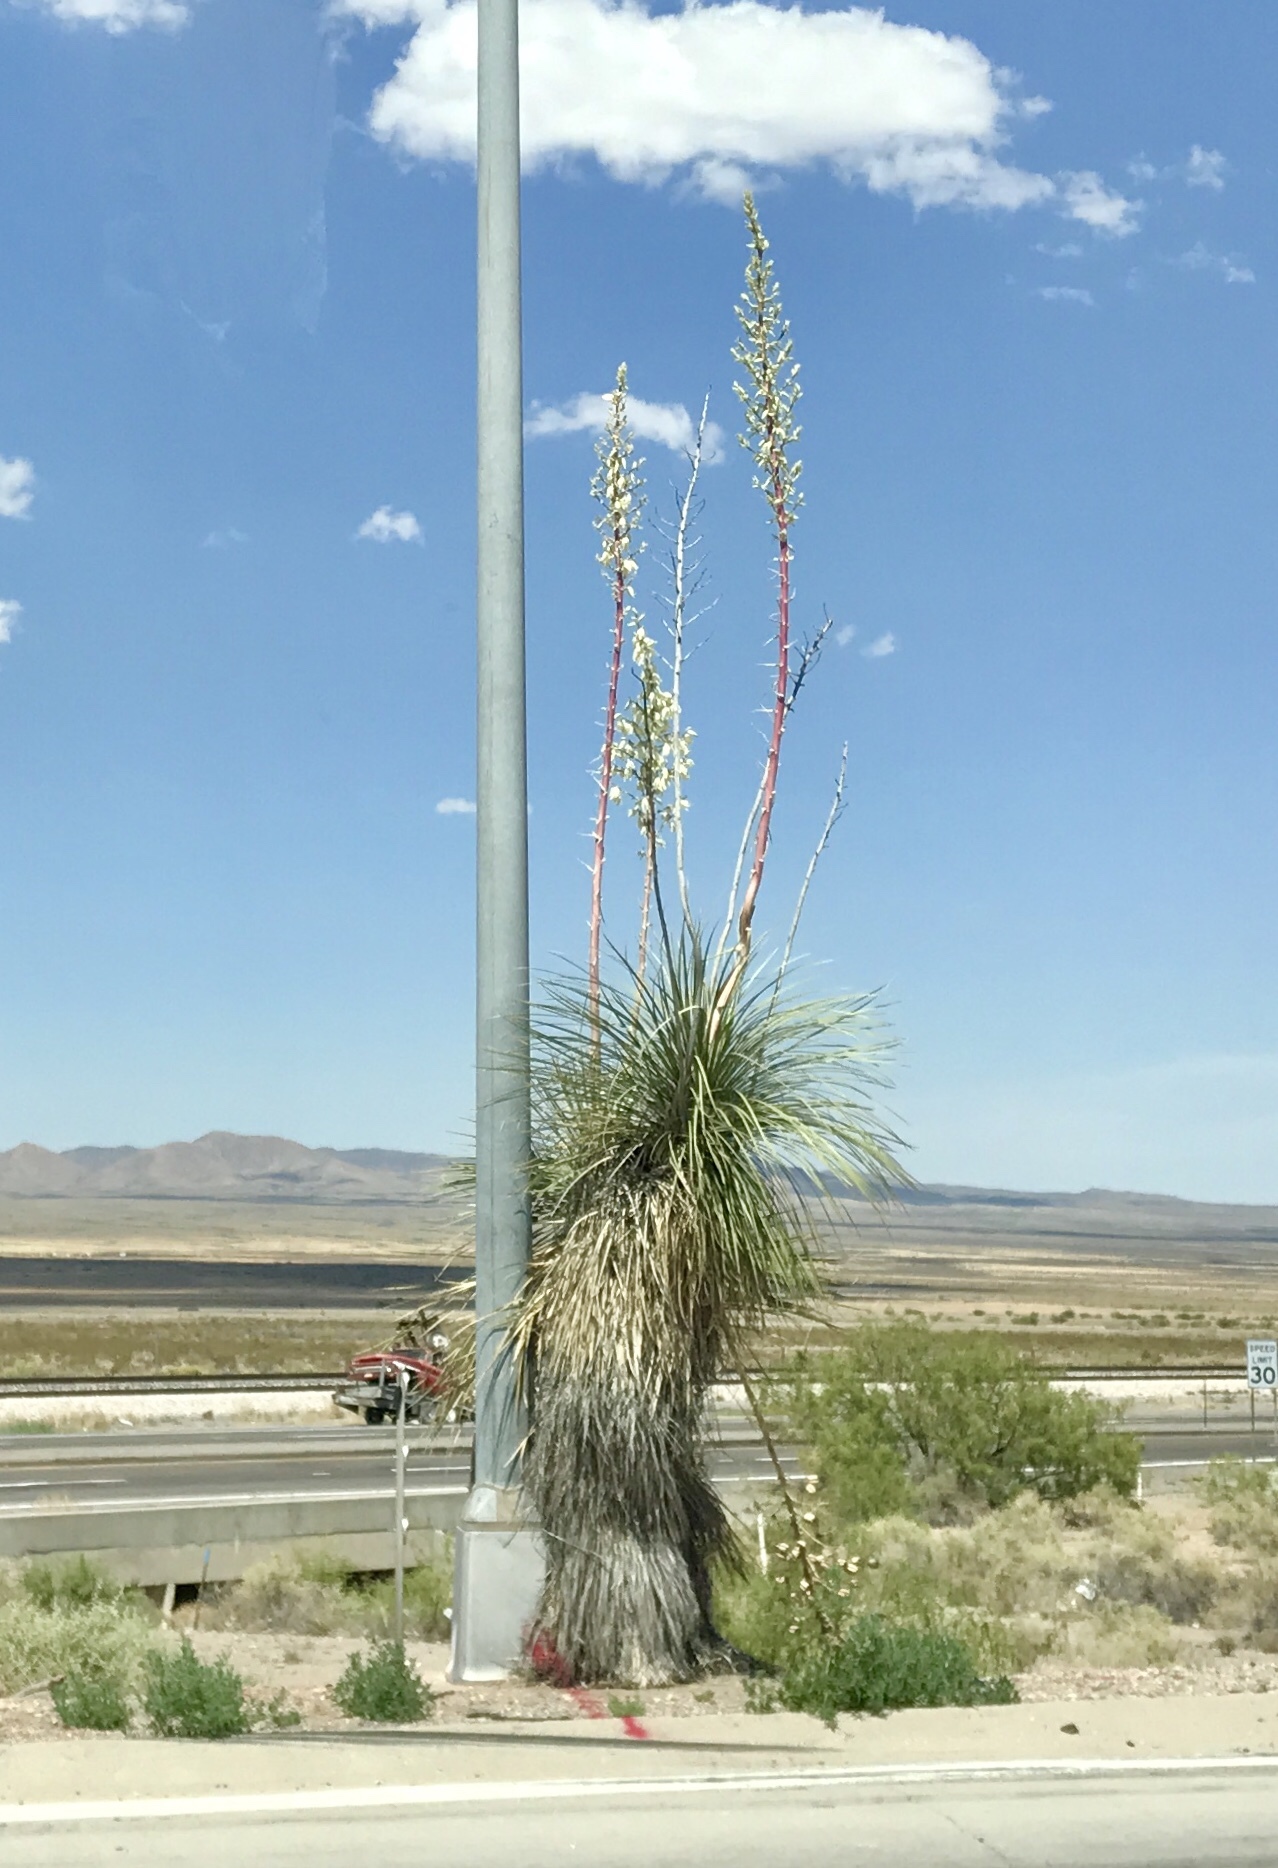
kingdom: Plantae
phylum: Tracheophyta
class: Liliopsida
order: Asparagales
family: Asparagaceae
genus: Yucca
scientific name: Yucca elata
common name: Palmella
